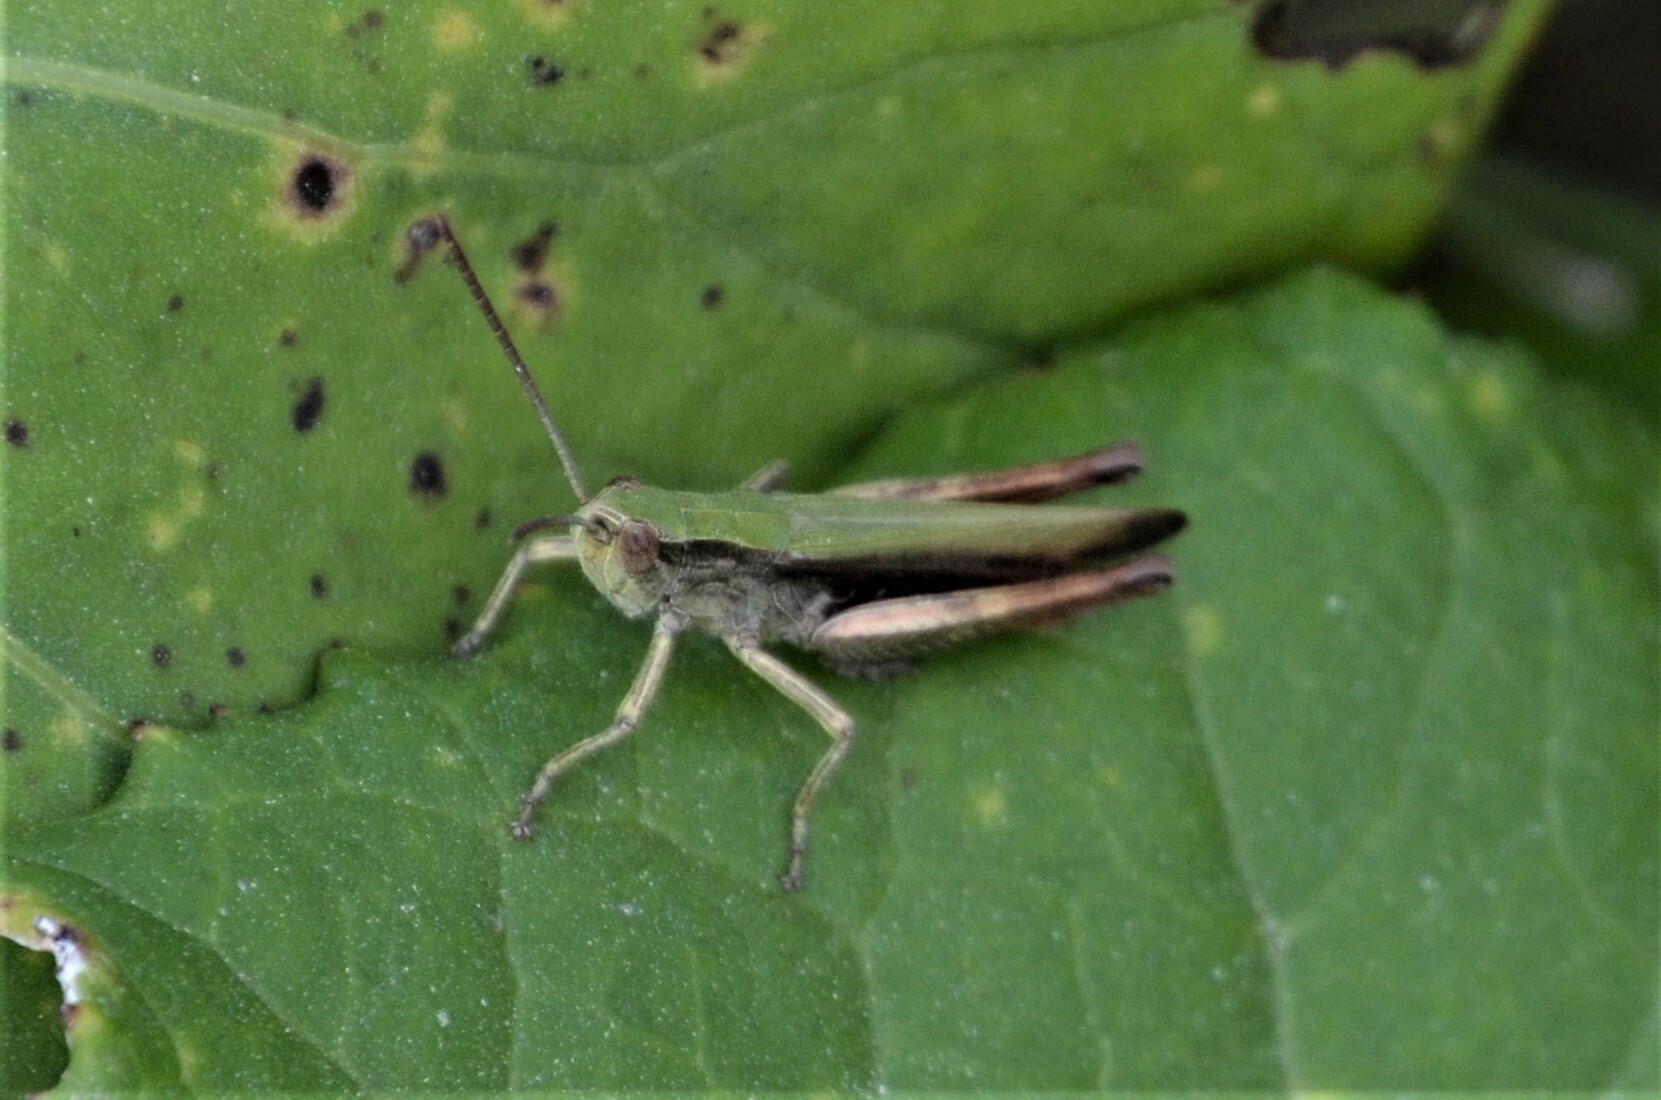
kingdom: Animalia
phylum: Arthropoda
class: Insecta
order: Orthoptera
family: Acrididae
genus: Chorthippus
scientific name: Chorthippus dorsatus
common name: Steppe grasshopper
